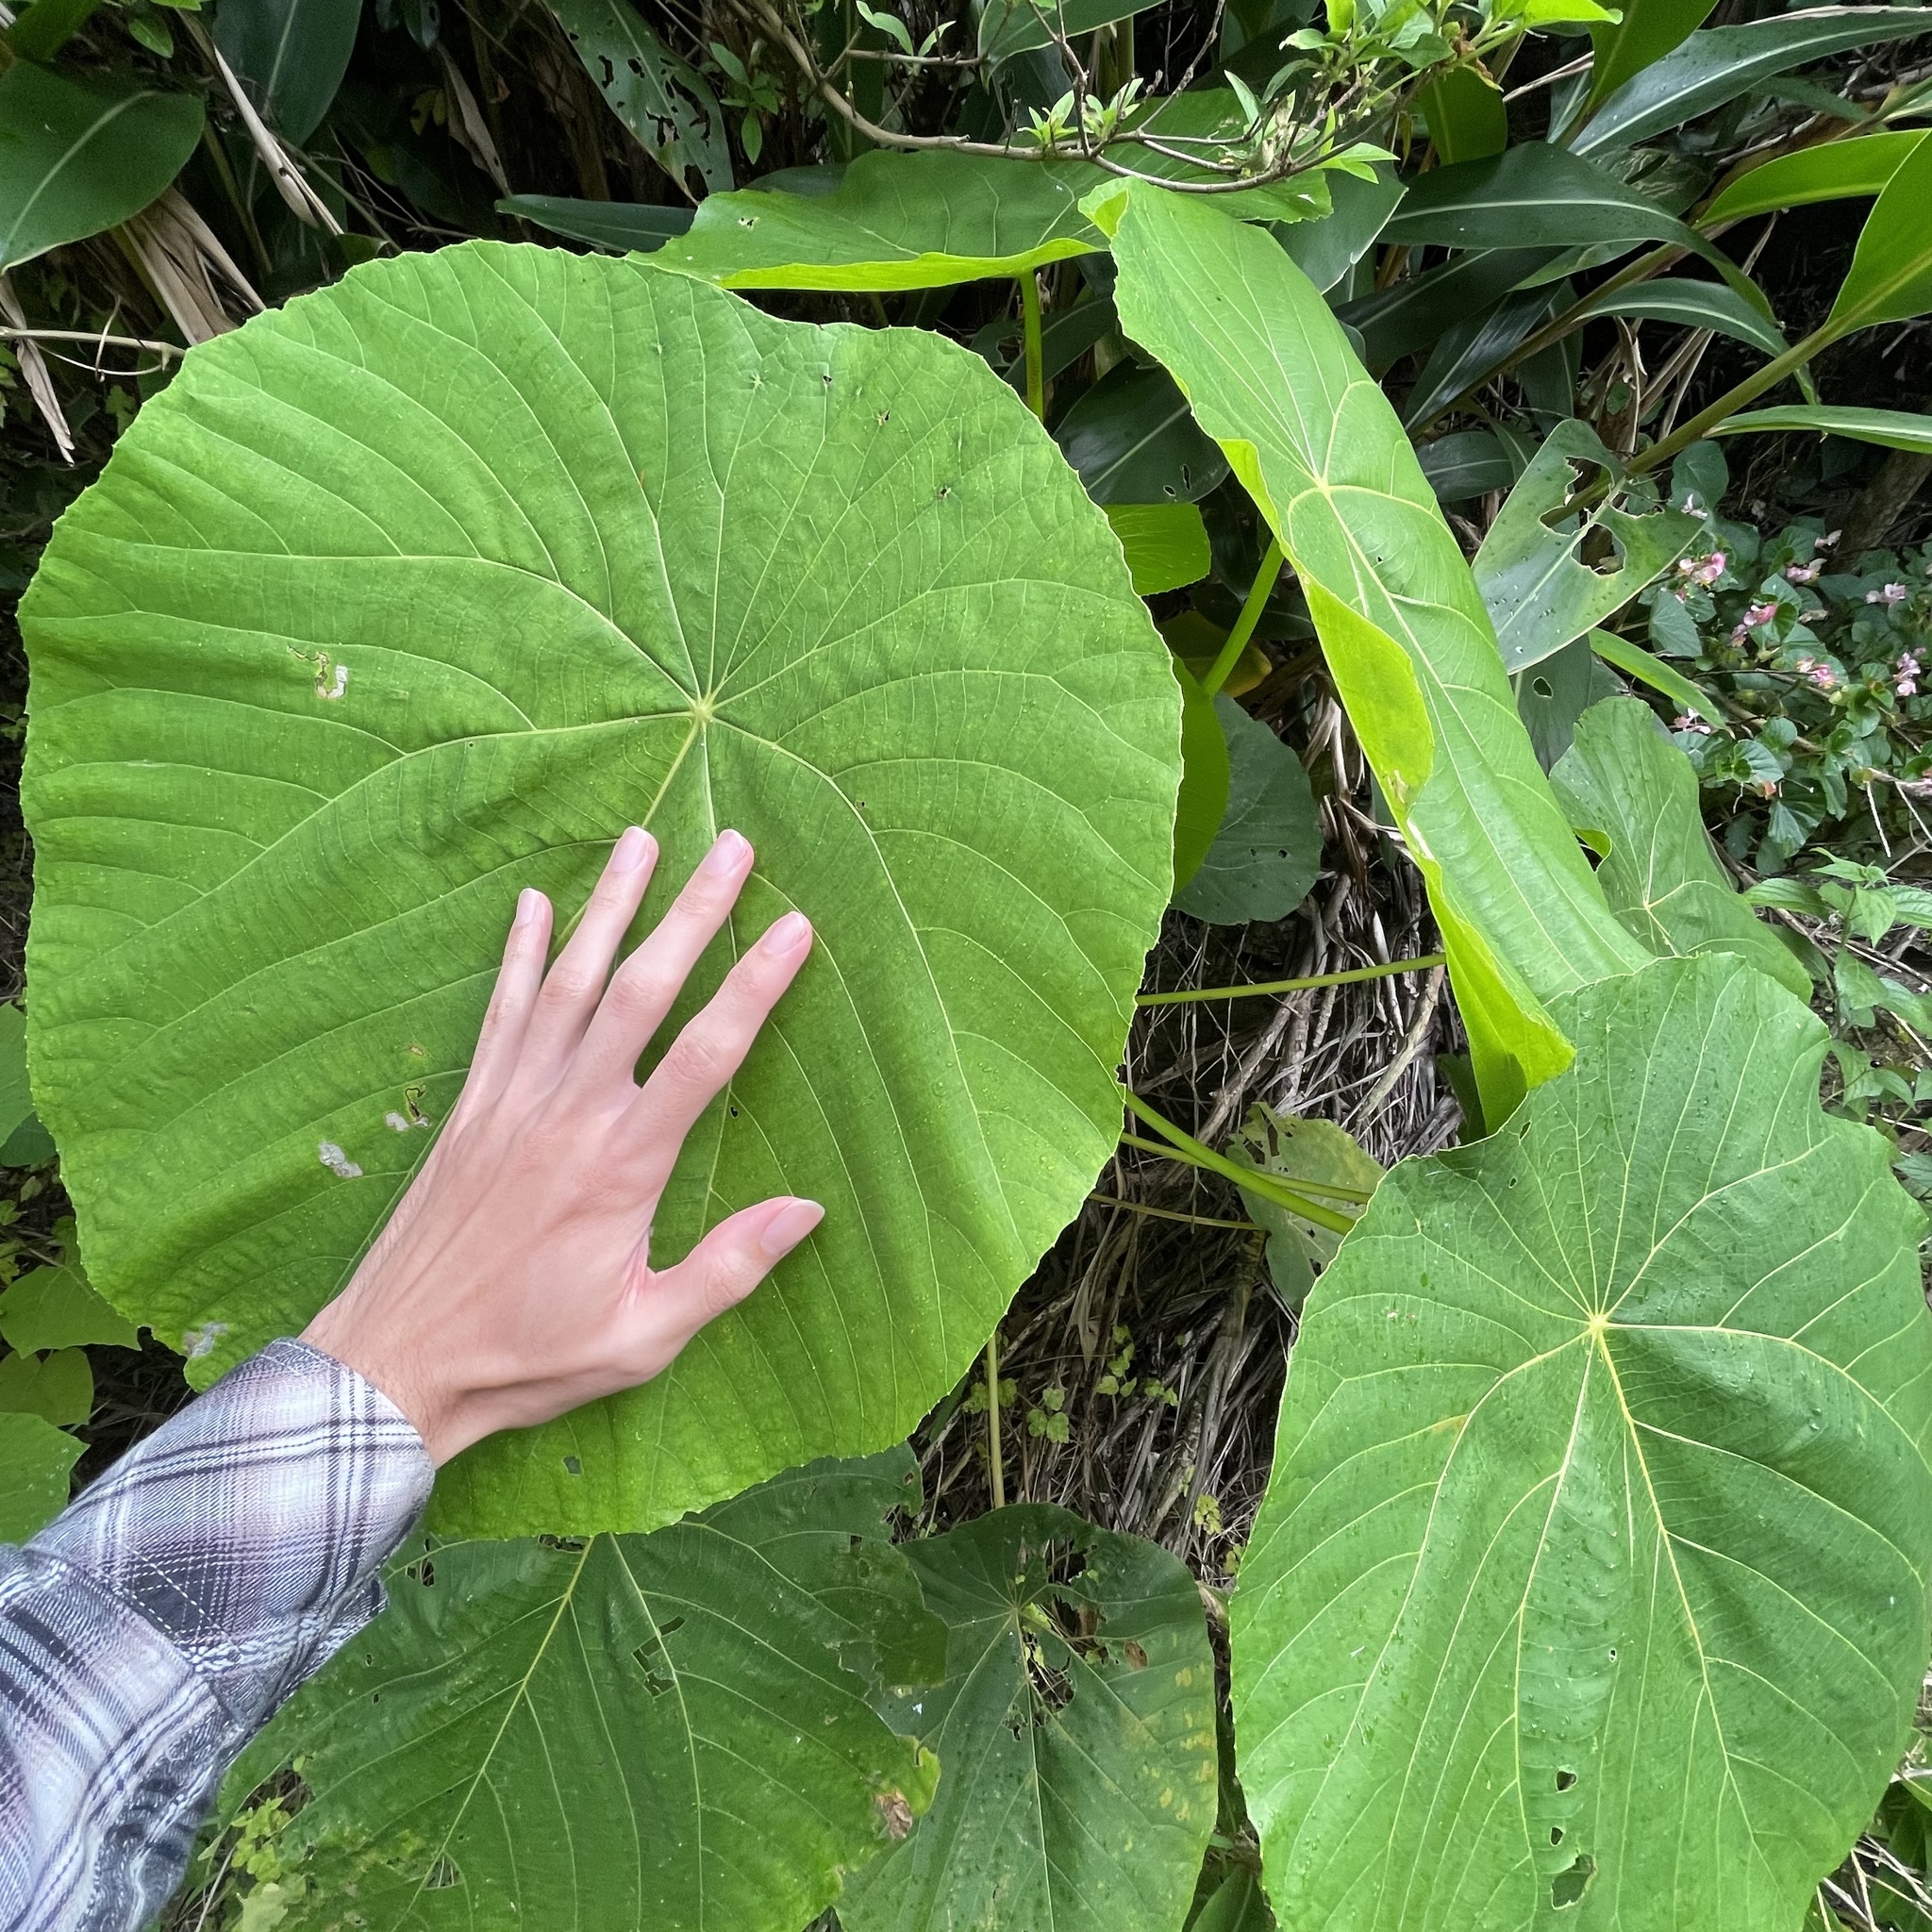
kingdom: Plantae
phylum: Tracheophyta
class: Magnoliopsida
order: Malpighiales
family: Euphorbiaceae
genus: Macaranga
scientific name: Macaranga tanarius
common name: Parasol leaf tree
